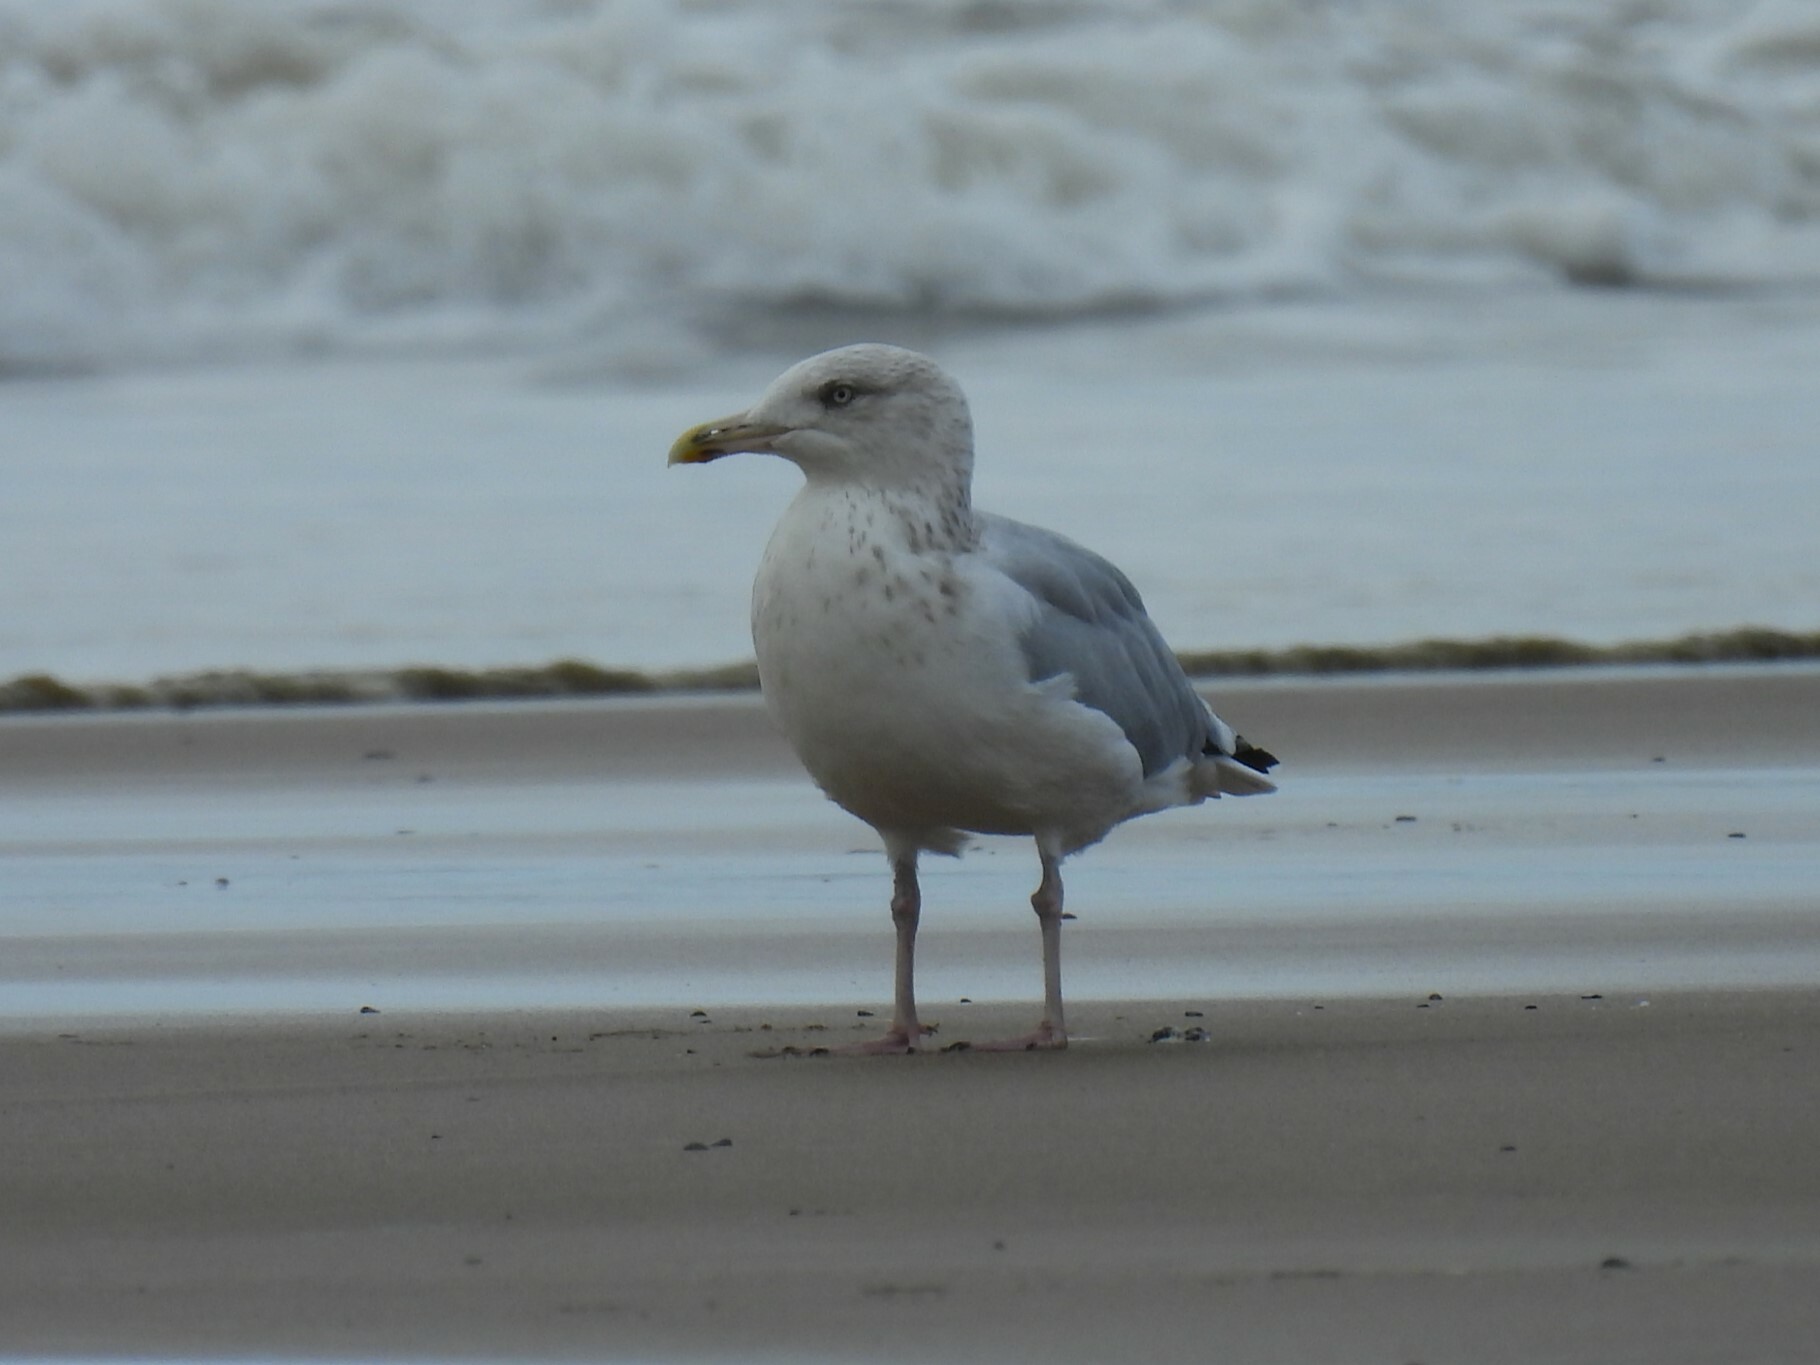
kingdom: Animalia
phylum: Chordata
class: Aves
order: Charadriiformes
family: Laridae
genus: Larus
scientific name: Larus argentatus
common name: Herring gull
